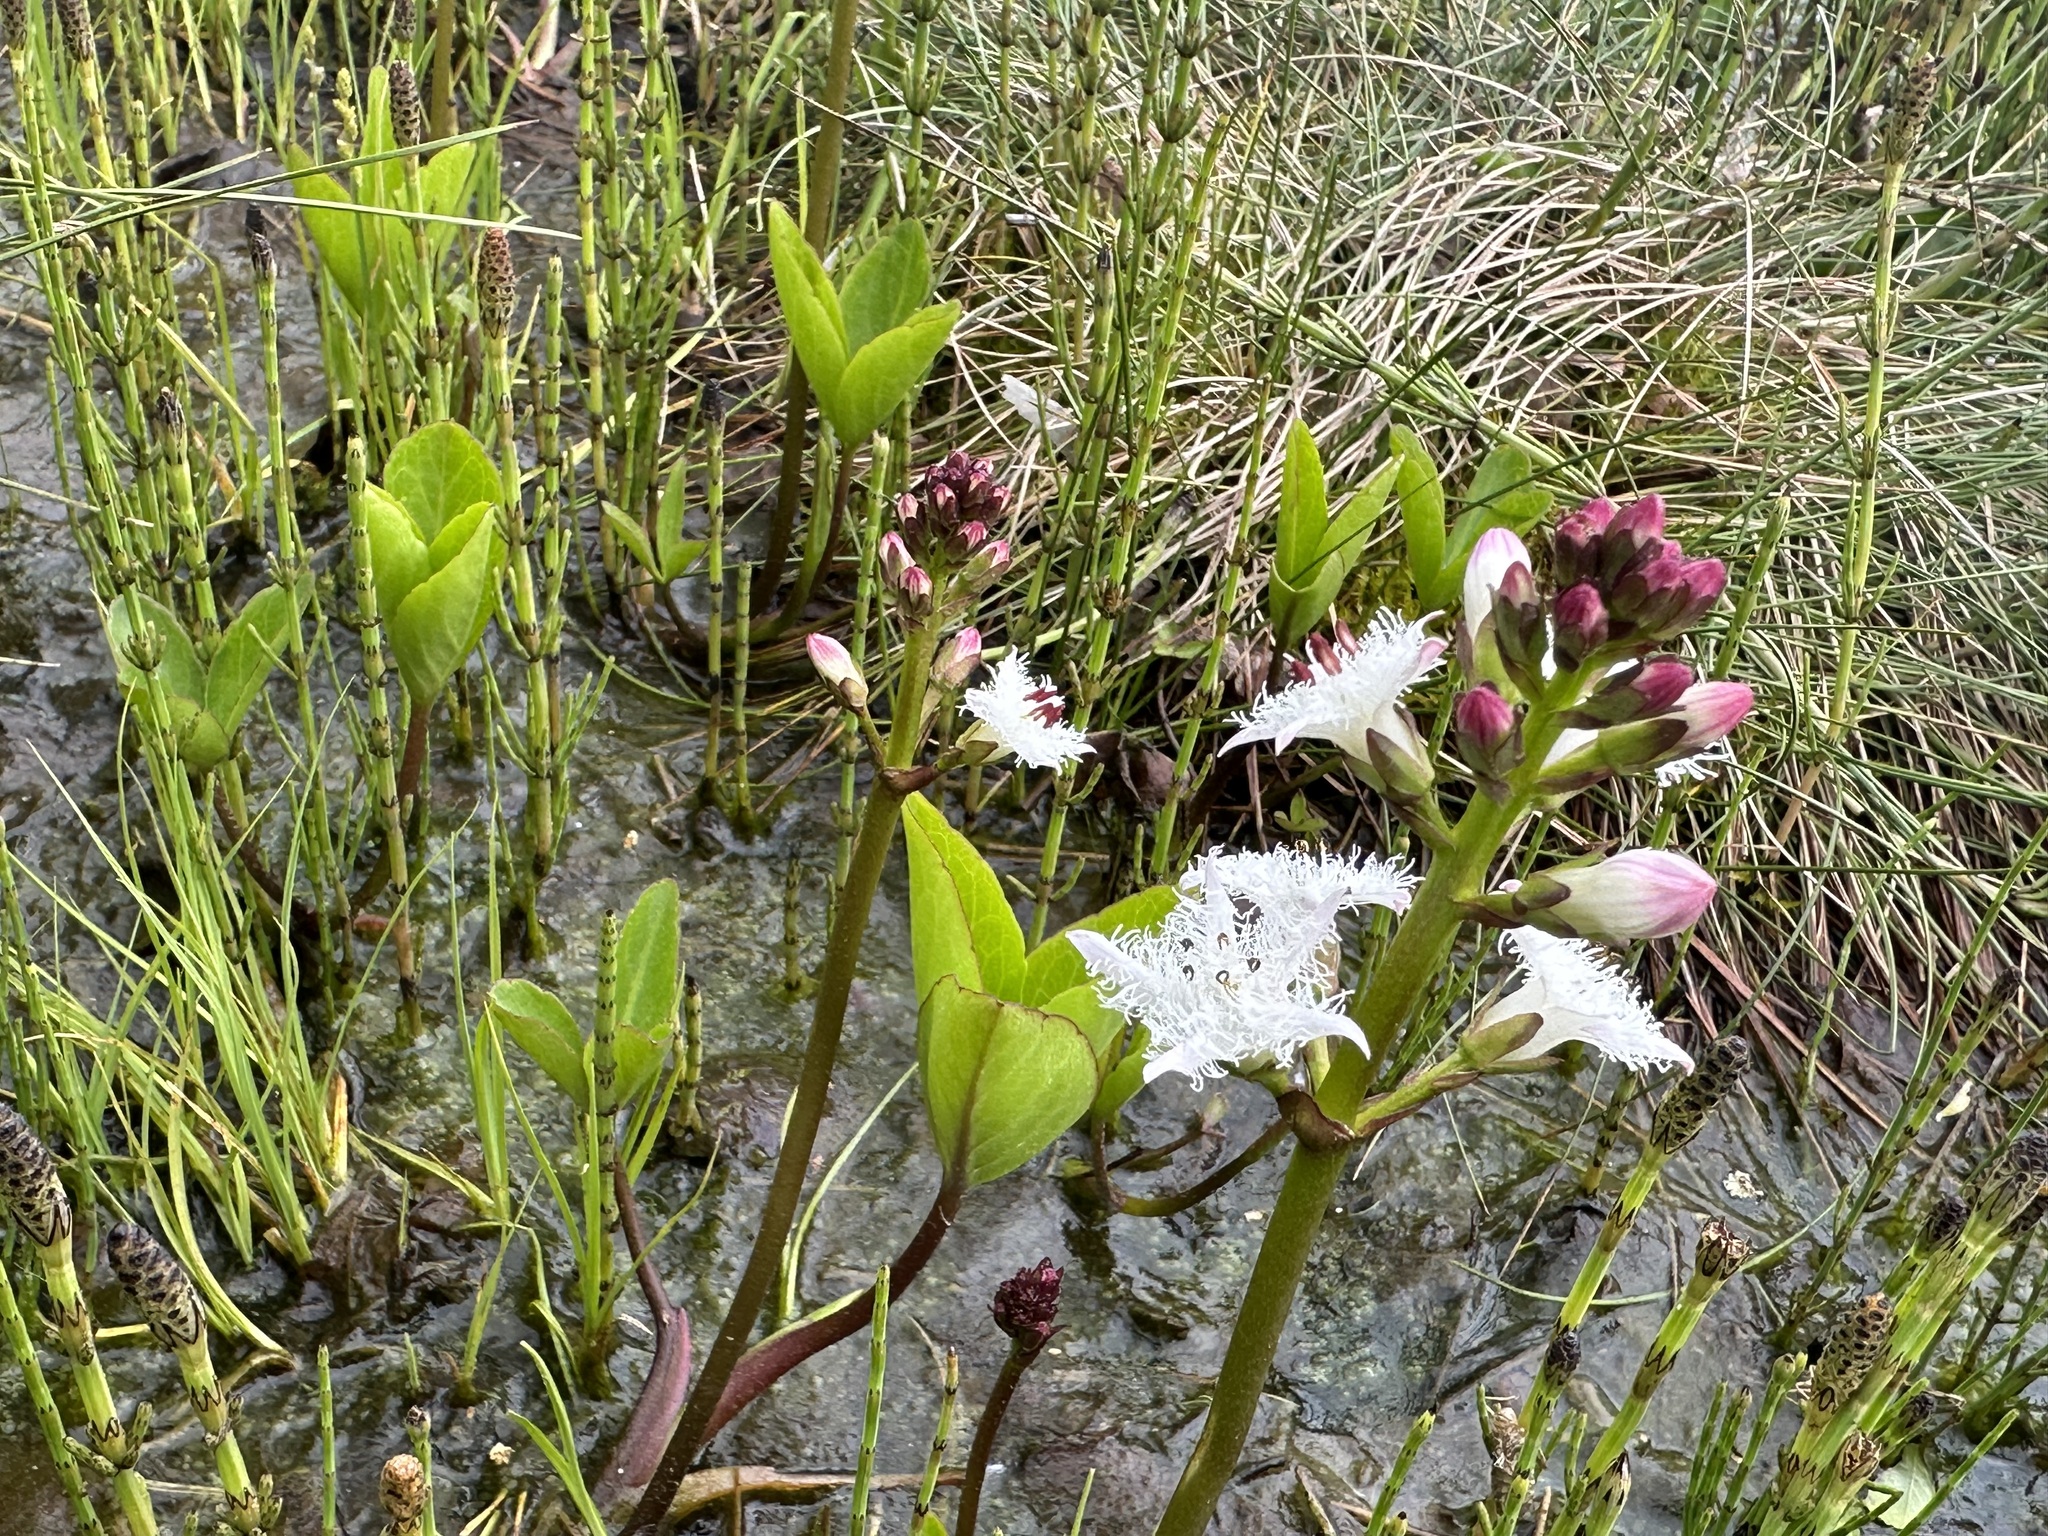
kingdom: Plantae
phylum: Tracheophyta
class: Magnoliopsida
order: Asterales
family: Menyanthaceae
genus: Menyanthes
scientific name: Menyanthes trifoliata
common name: Bogbean
